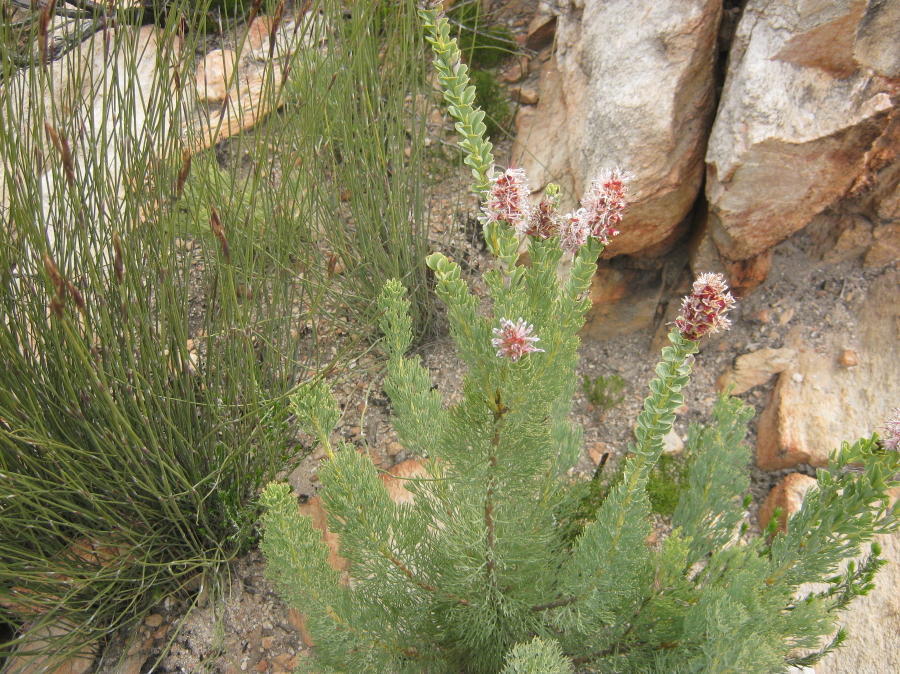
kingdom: Plantae
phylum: Tracheophyta
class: Magnoliopsida
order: Proteales
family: Proteaceae
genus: Paranomus
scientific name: Paranomus roodebergensis
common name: Honey-scented sceptre
